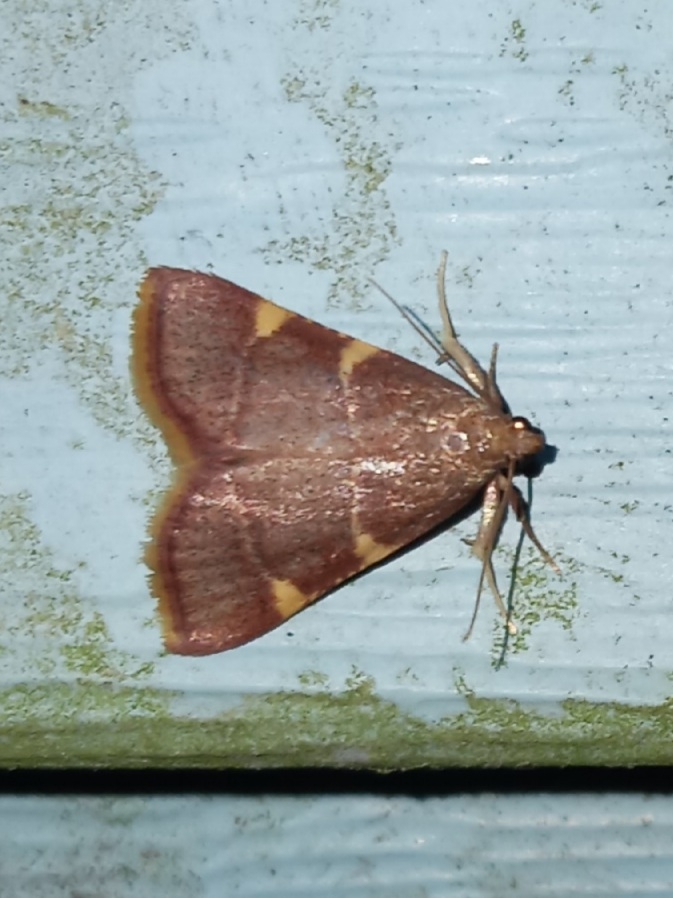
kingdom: Animalia
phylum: Arthropoda
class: Insecta
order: Lepidoptera
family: Pyralidae
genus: Hypsopygia
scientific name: Hypsopygia olinalis
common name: Yellow-fringed dolichomia moth
